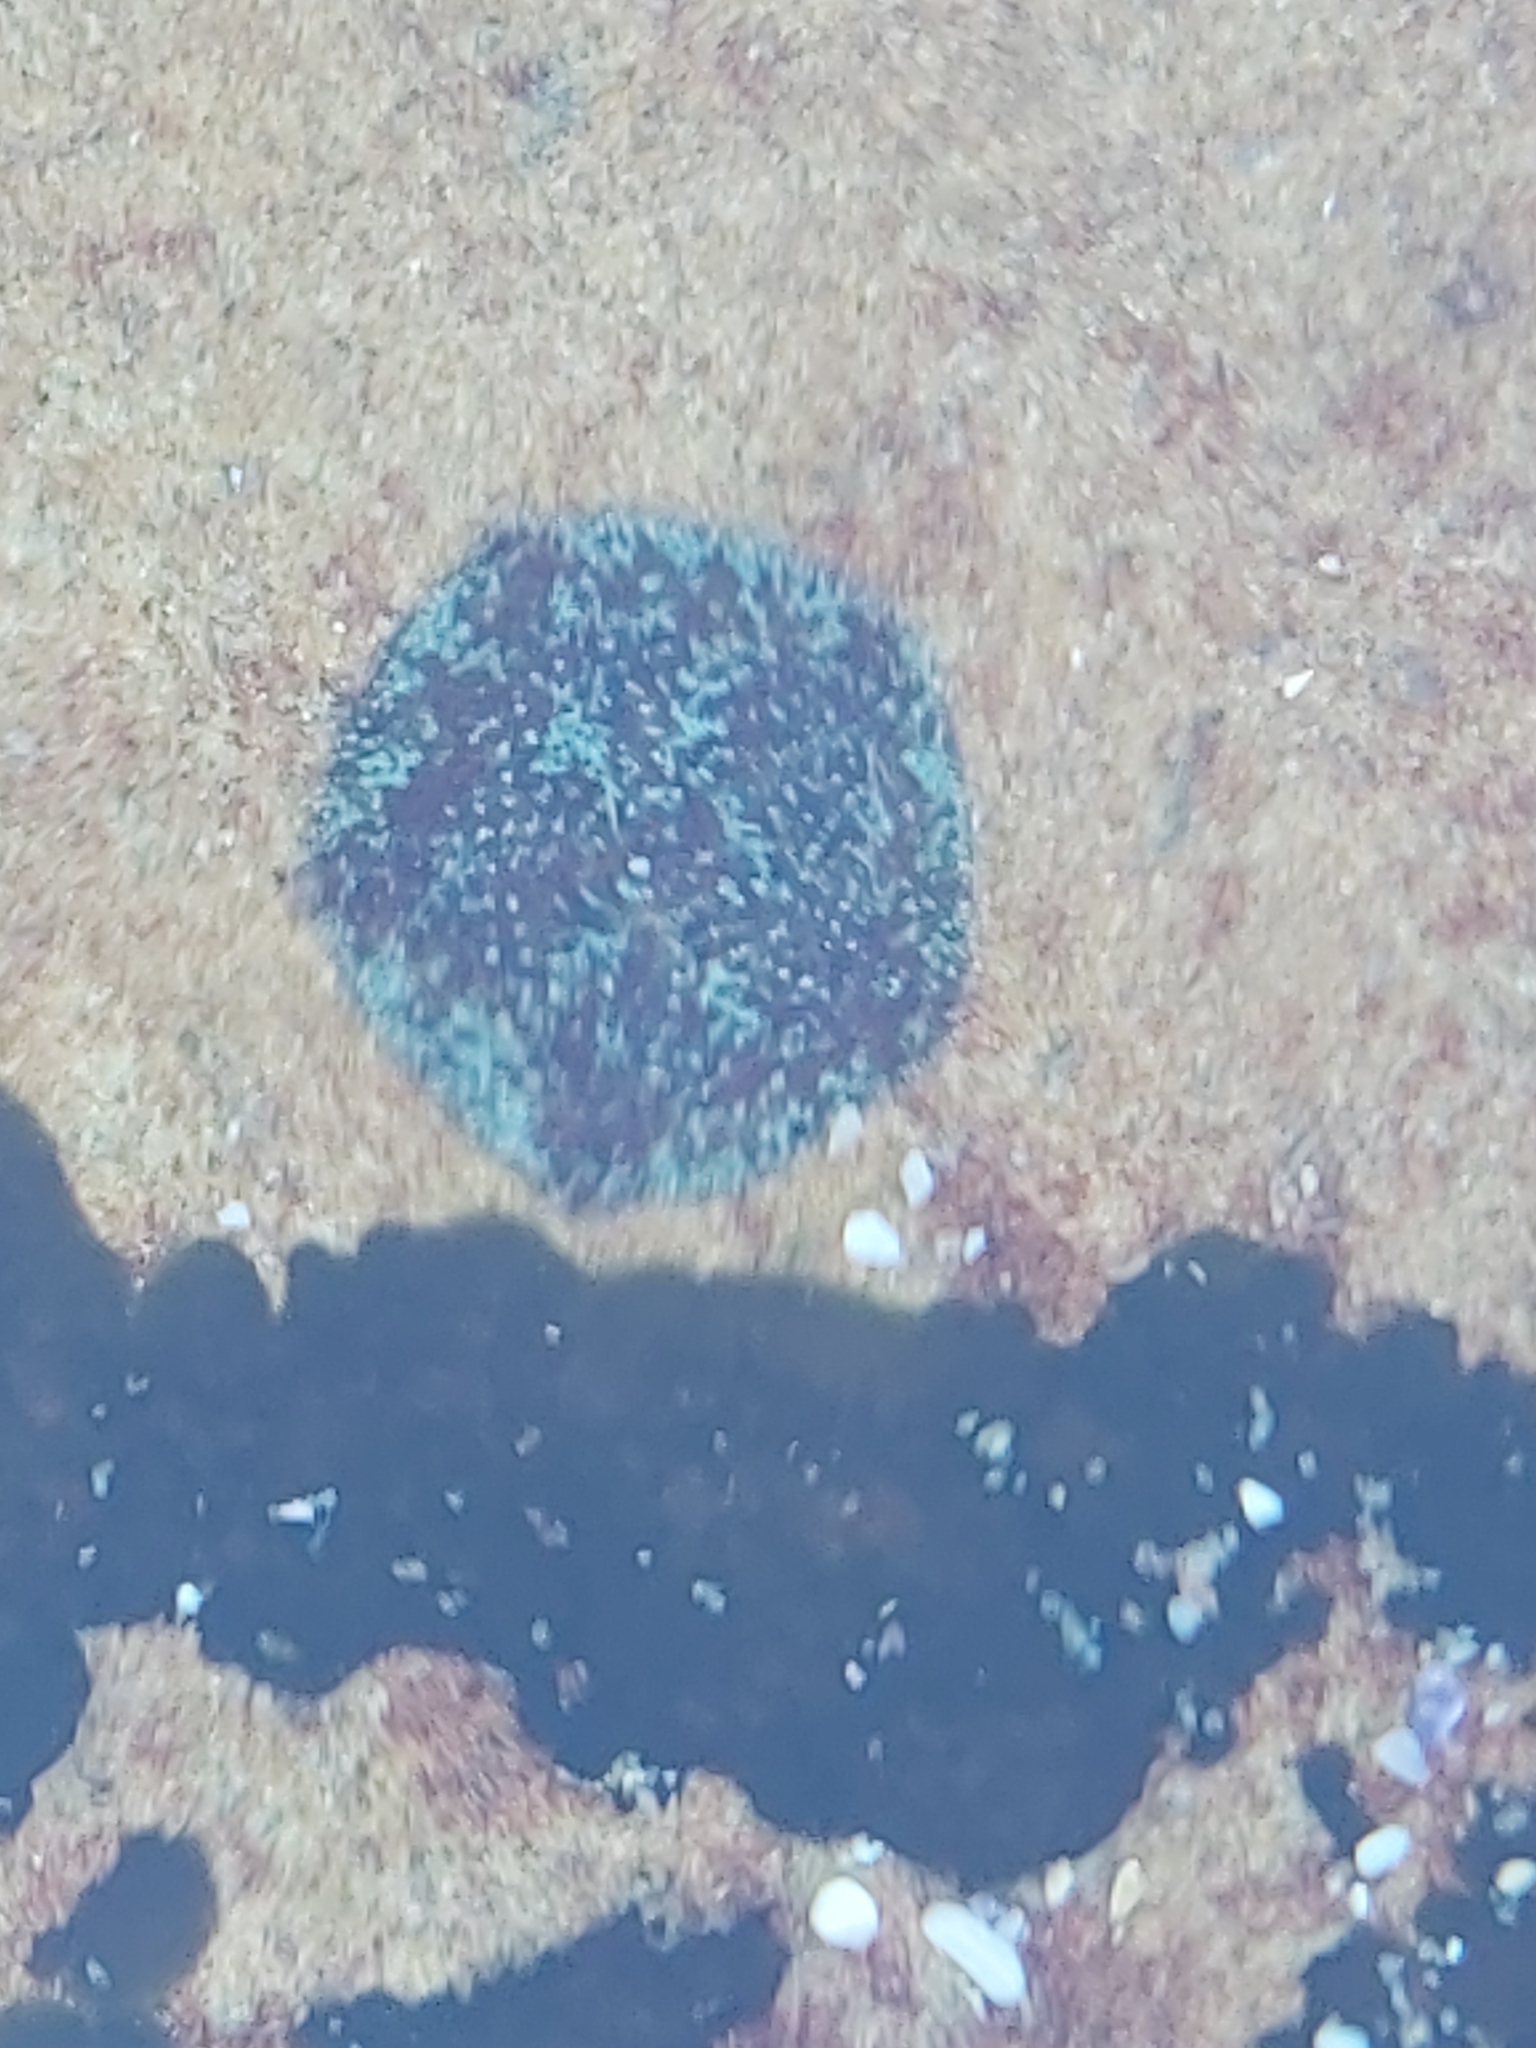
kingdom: Animalia
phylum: Echinodermata
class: Asteroidea
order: Valvatida
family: Asterinidae
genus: Parvulastra
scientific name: Parvulastra exigua
